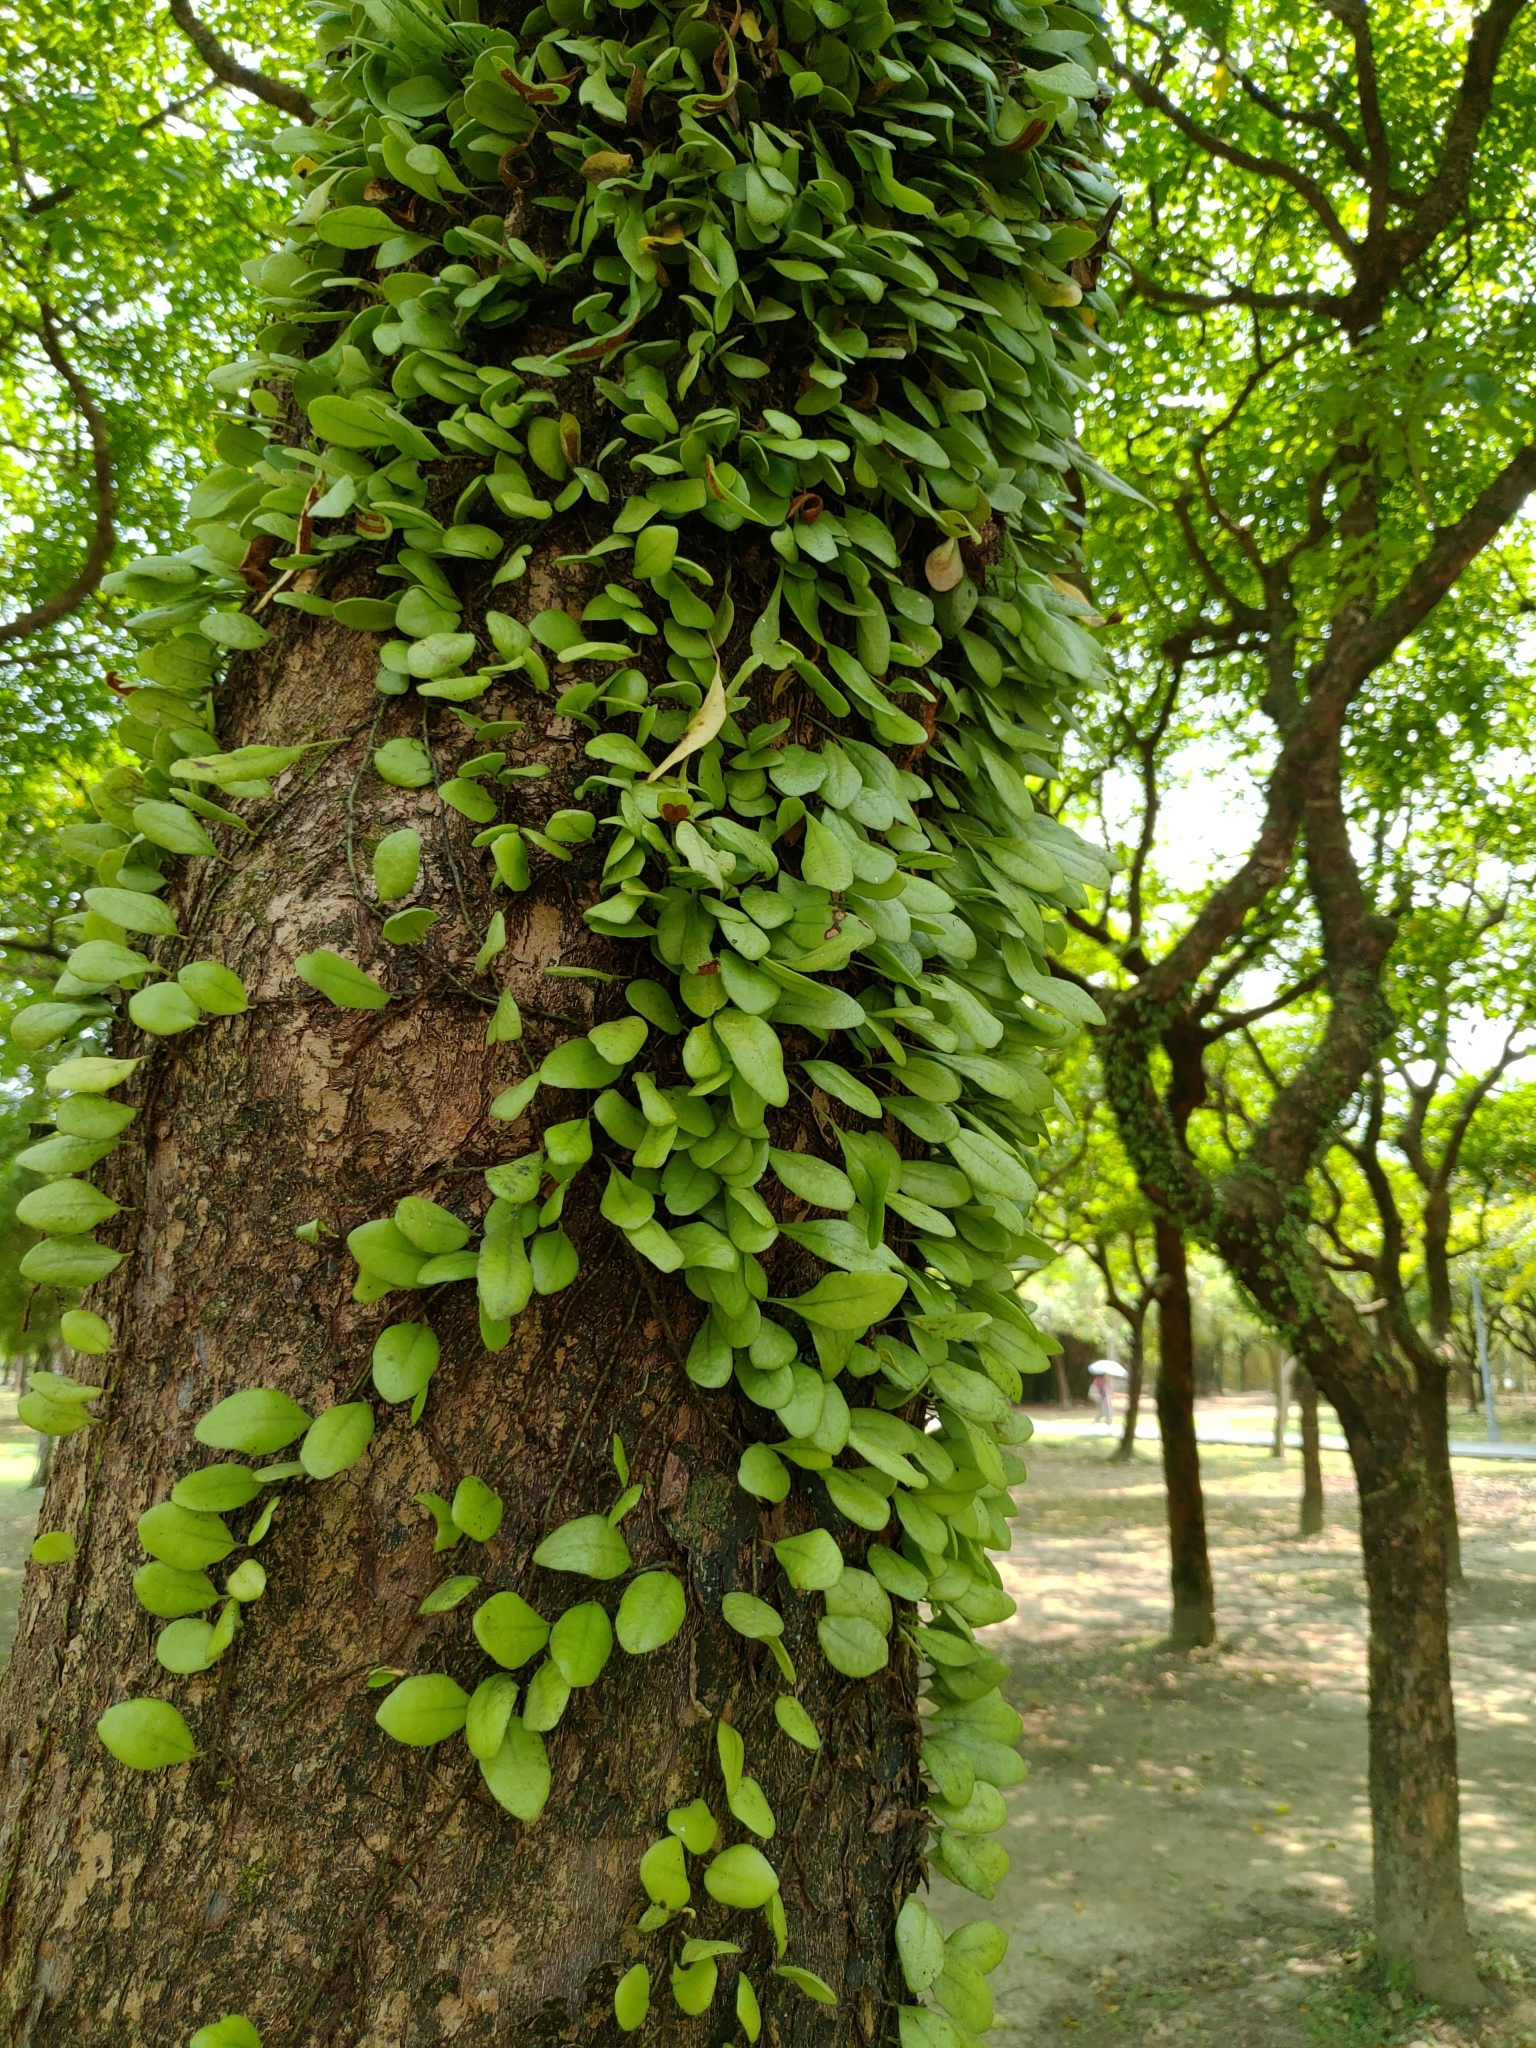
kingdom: Plantae
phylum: Tracheophyta
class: Polypodiopsida
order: Polypodiales
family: Polypodiaceae
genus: Lepisorus
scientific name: Lepisorus microphyllus
